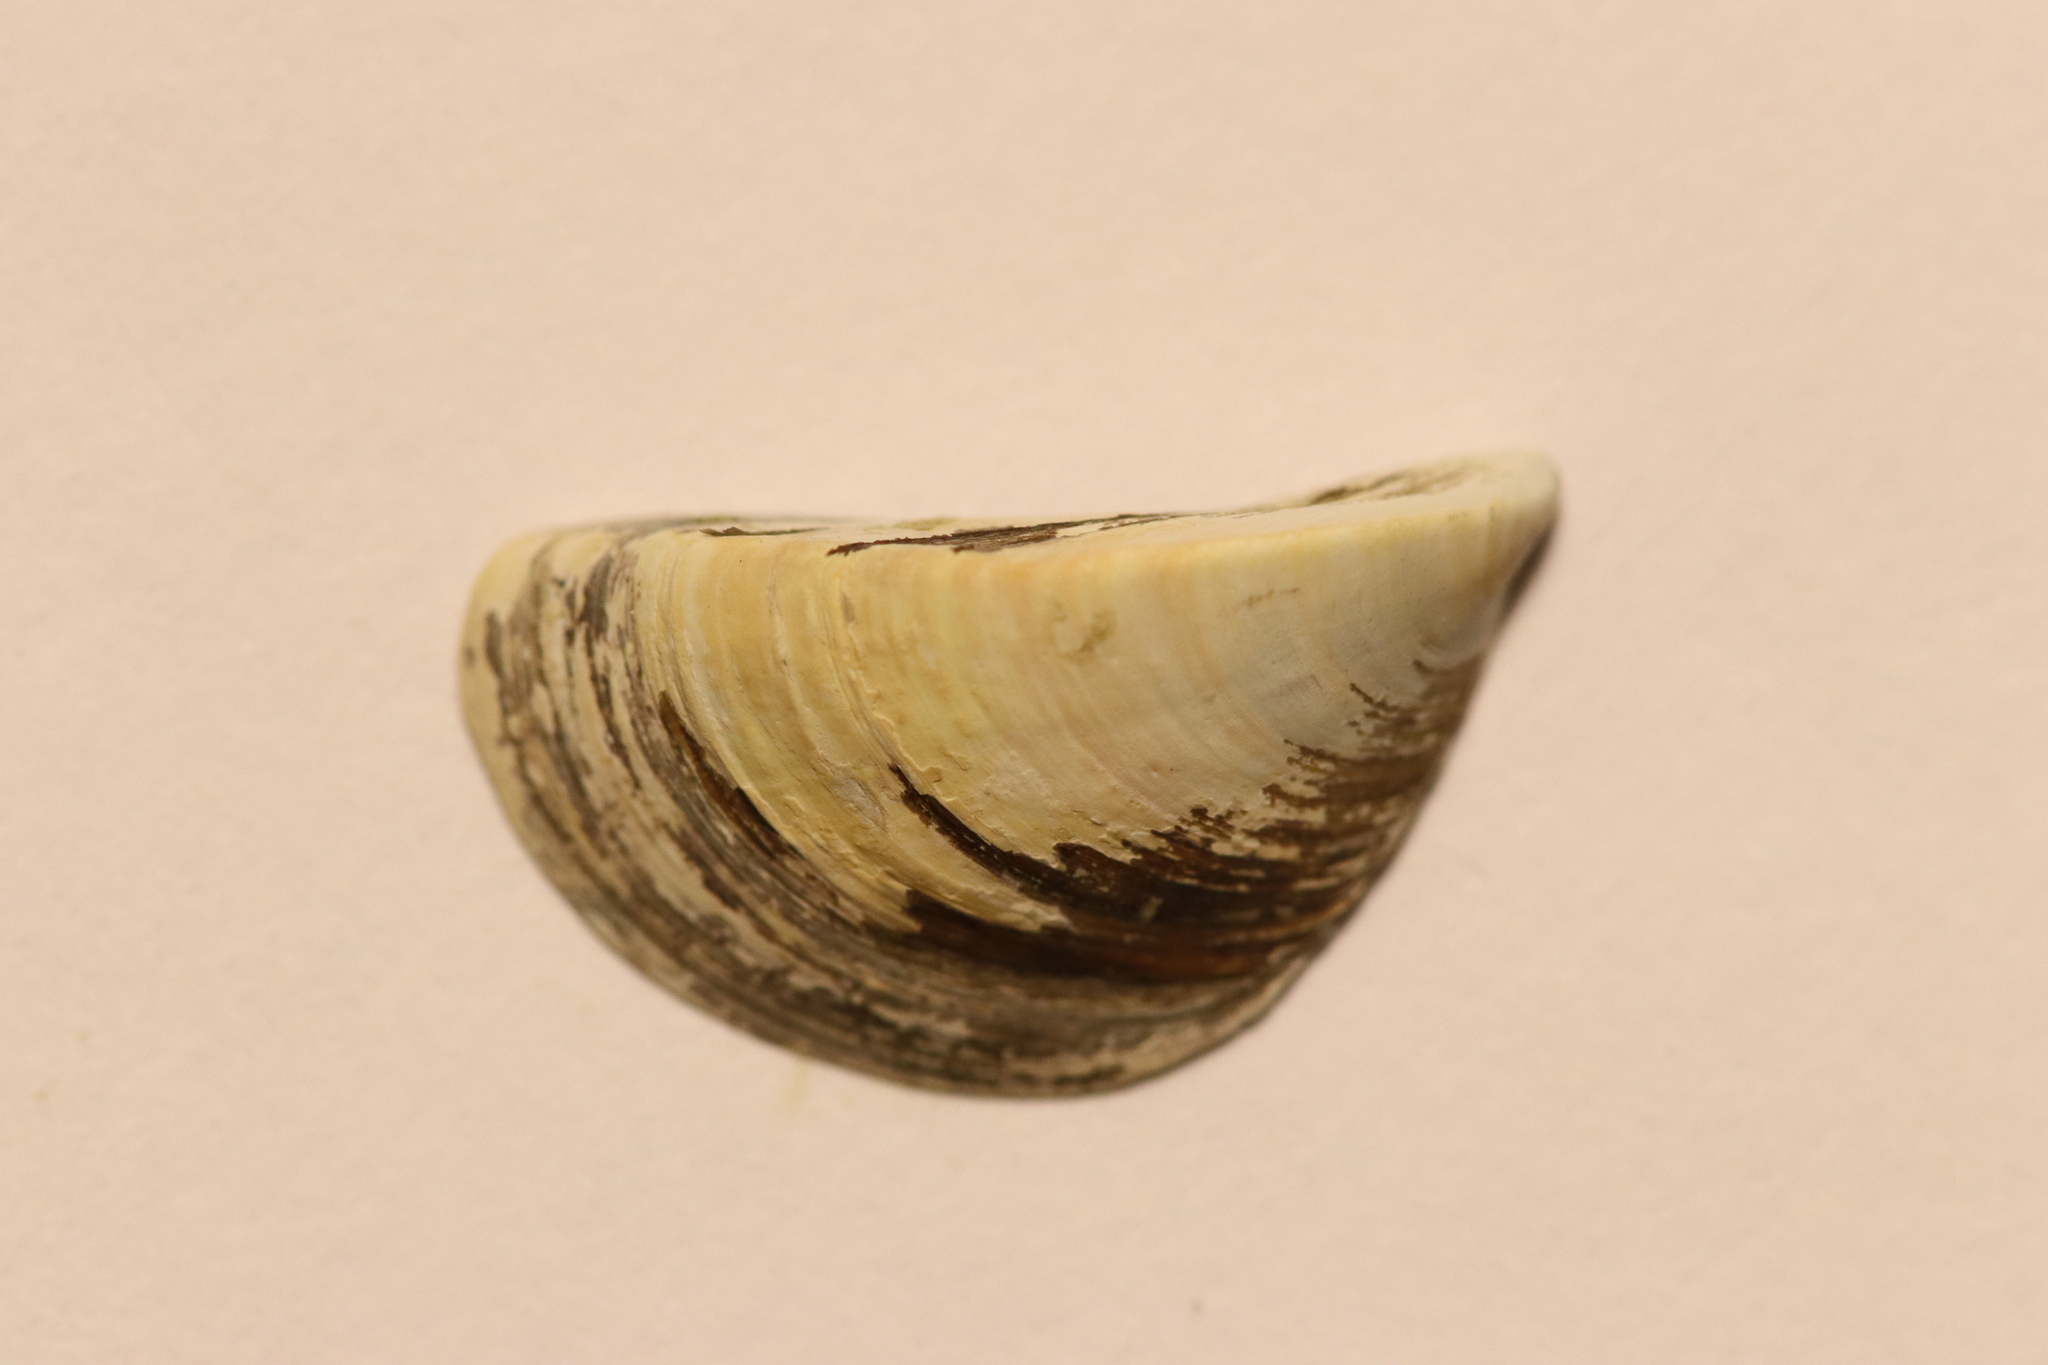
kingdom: Animalia
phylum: Mollusca
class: Bivalvia
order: Myida
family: Dreissenidae
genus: Dreissena
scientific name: Dreissena polymorpha
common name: Zebra mussel
